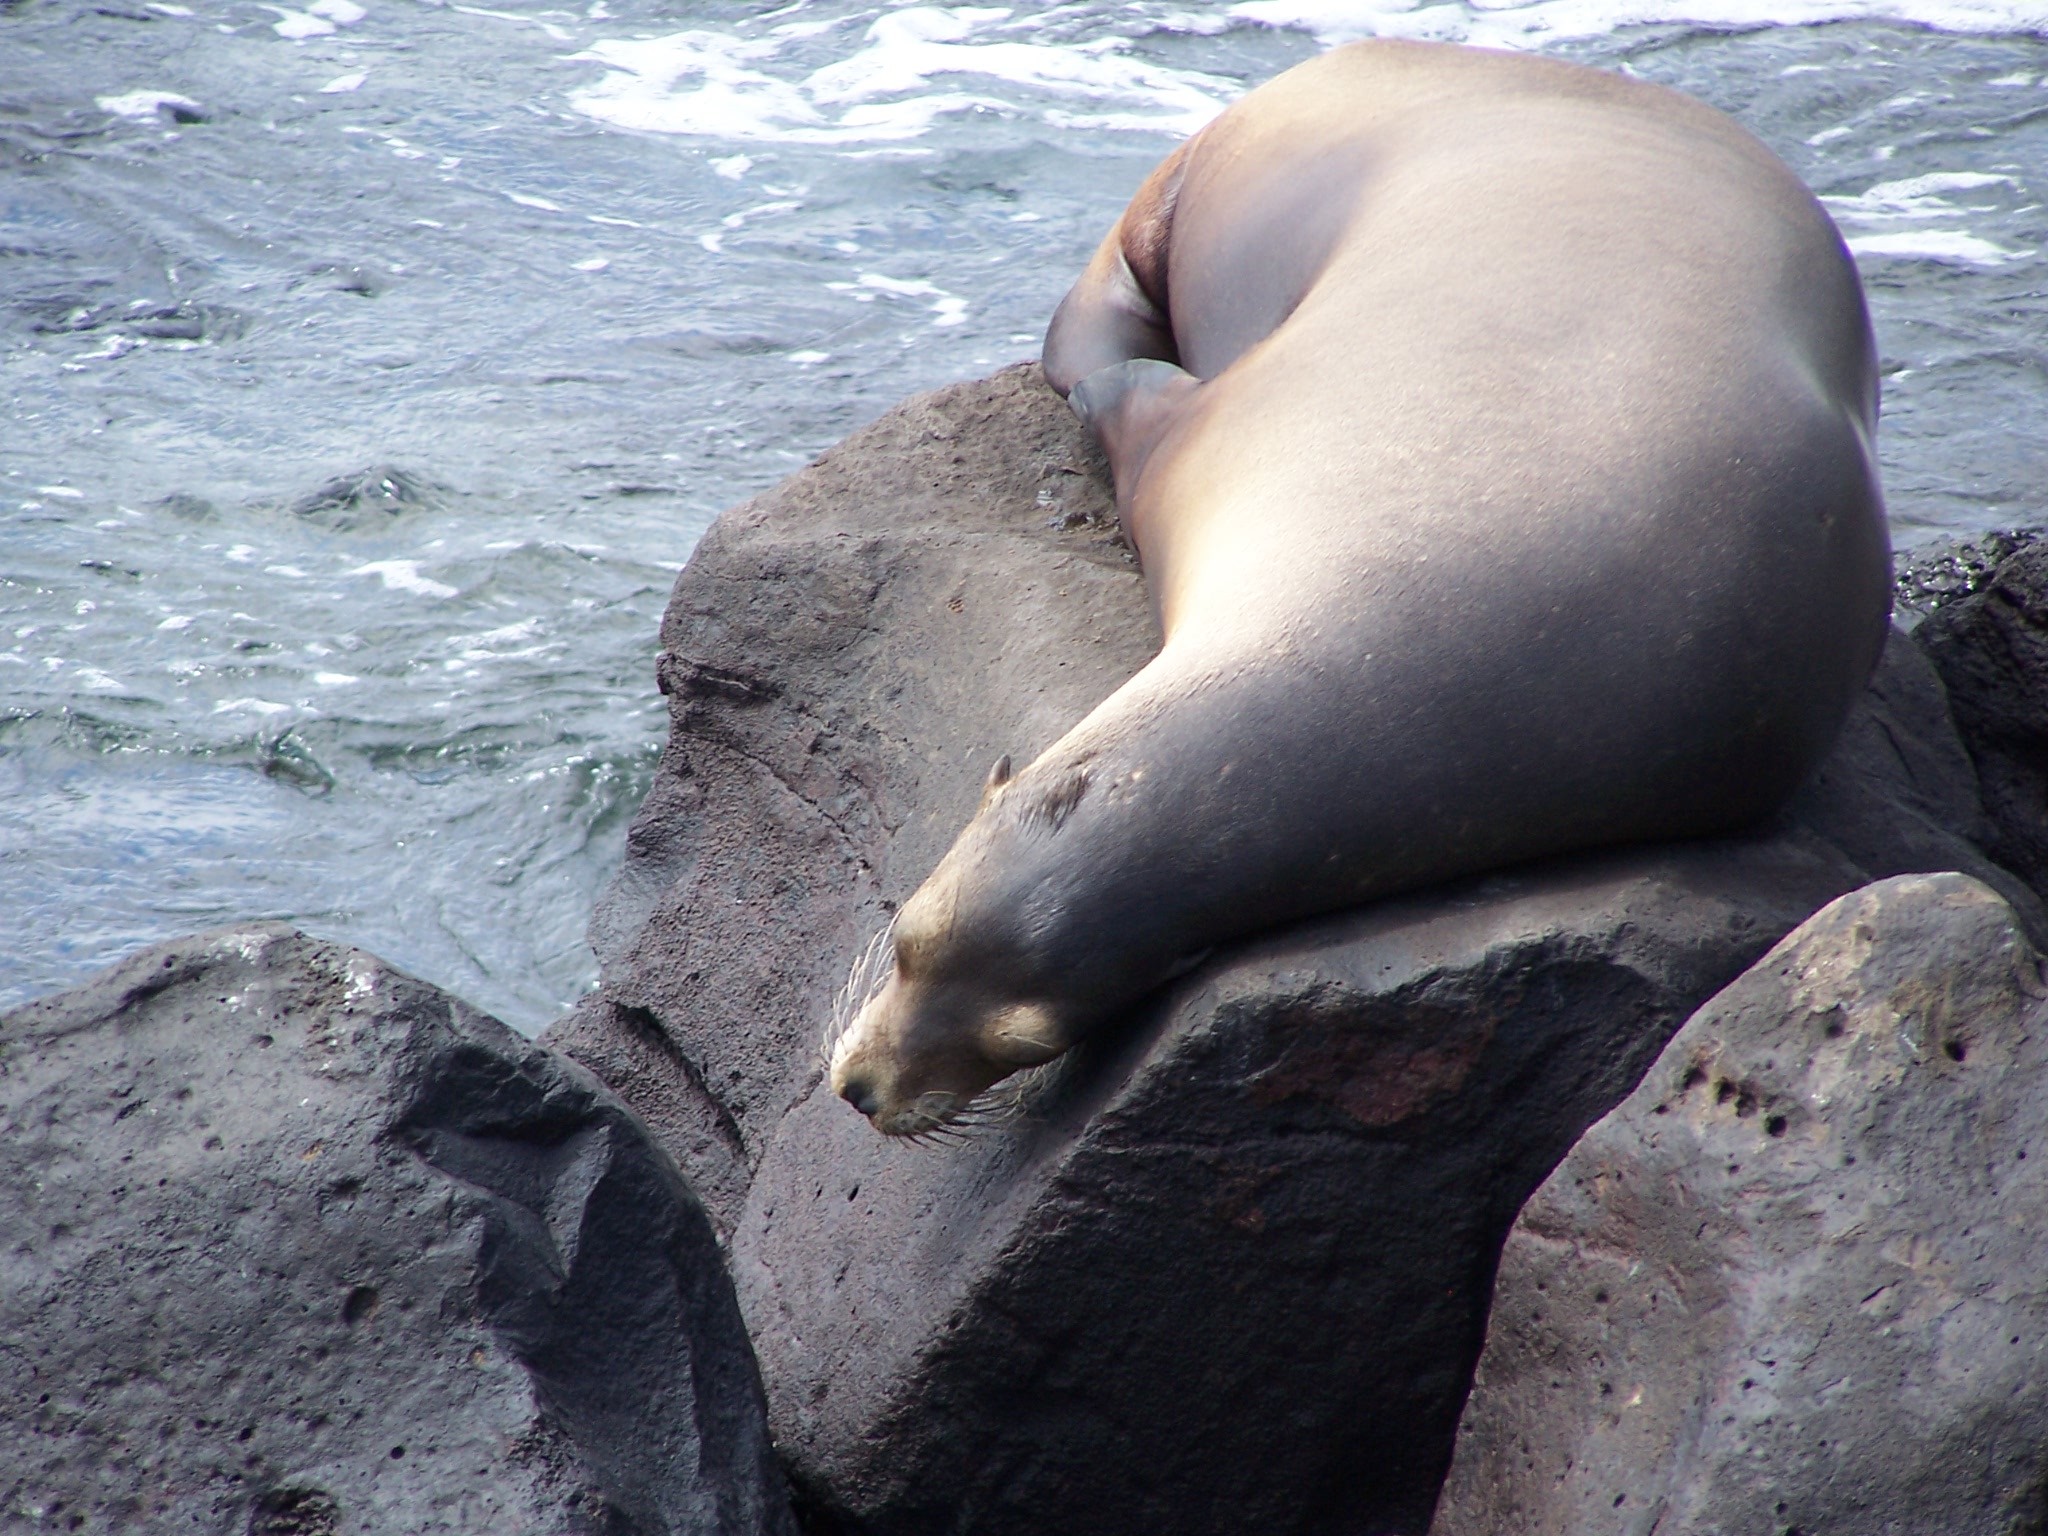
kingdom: Animalia
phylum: Chordata
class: Mammalia
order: Carnivora
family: Otariidae
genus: Zalophus
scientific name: Zalophus wollebaeki
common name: Galapagos sea lion
